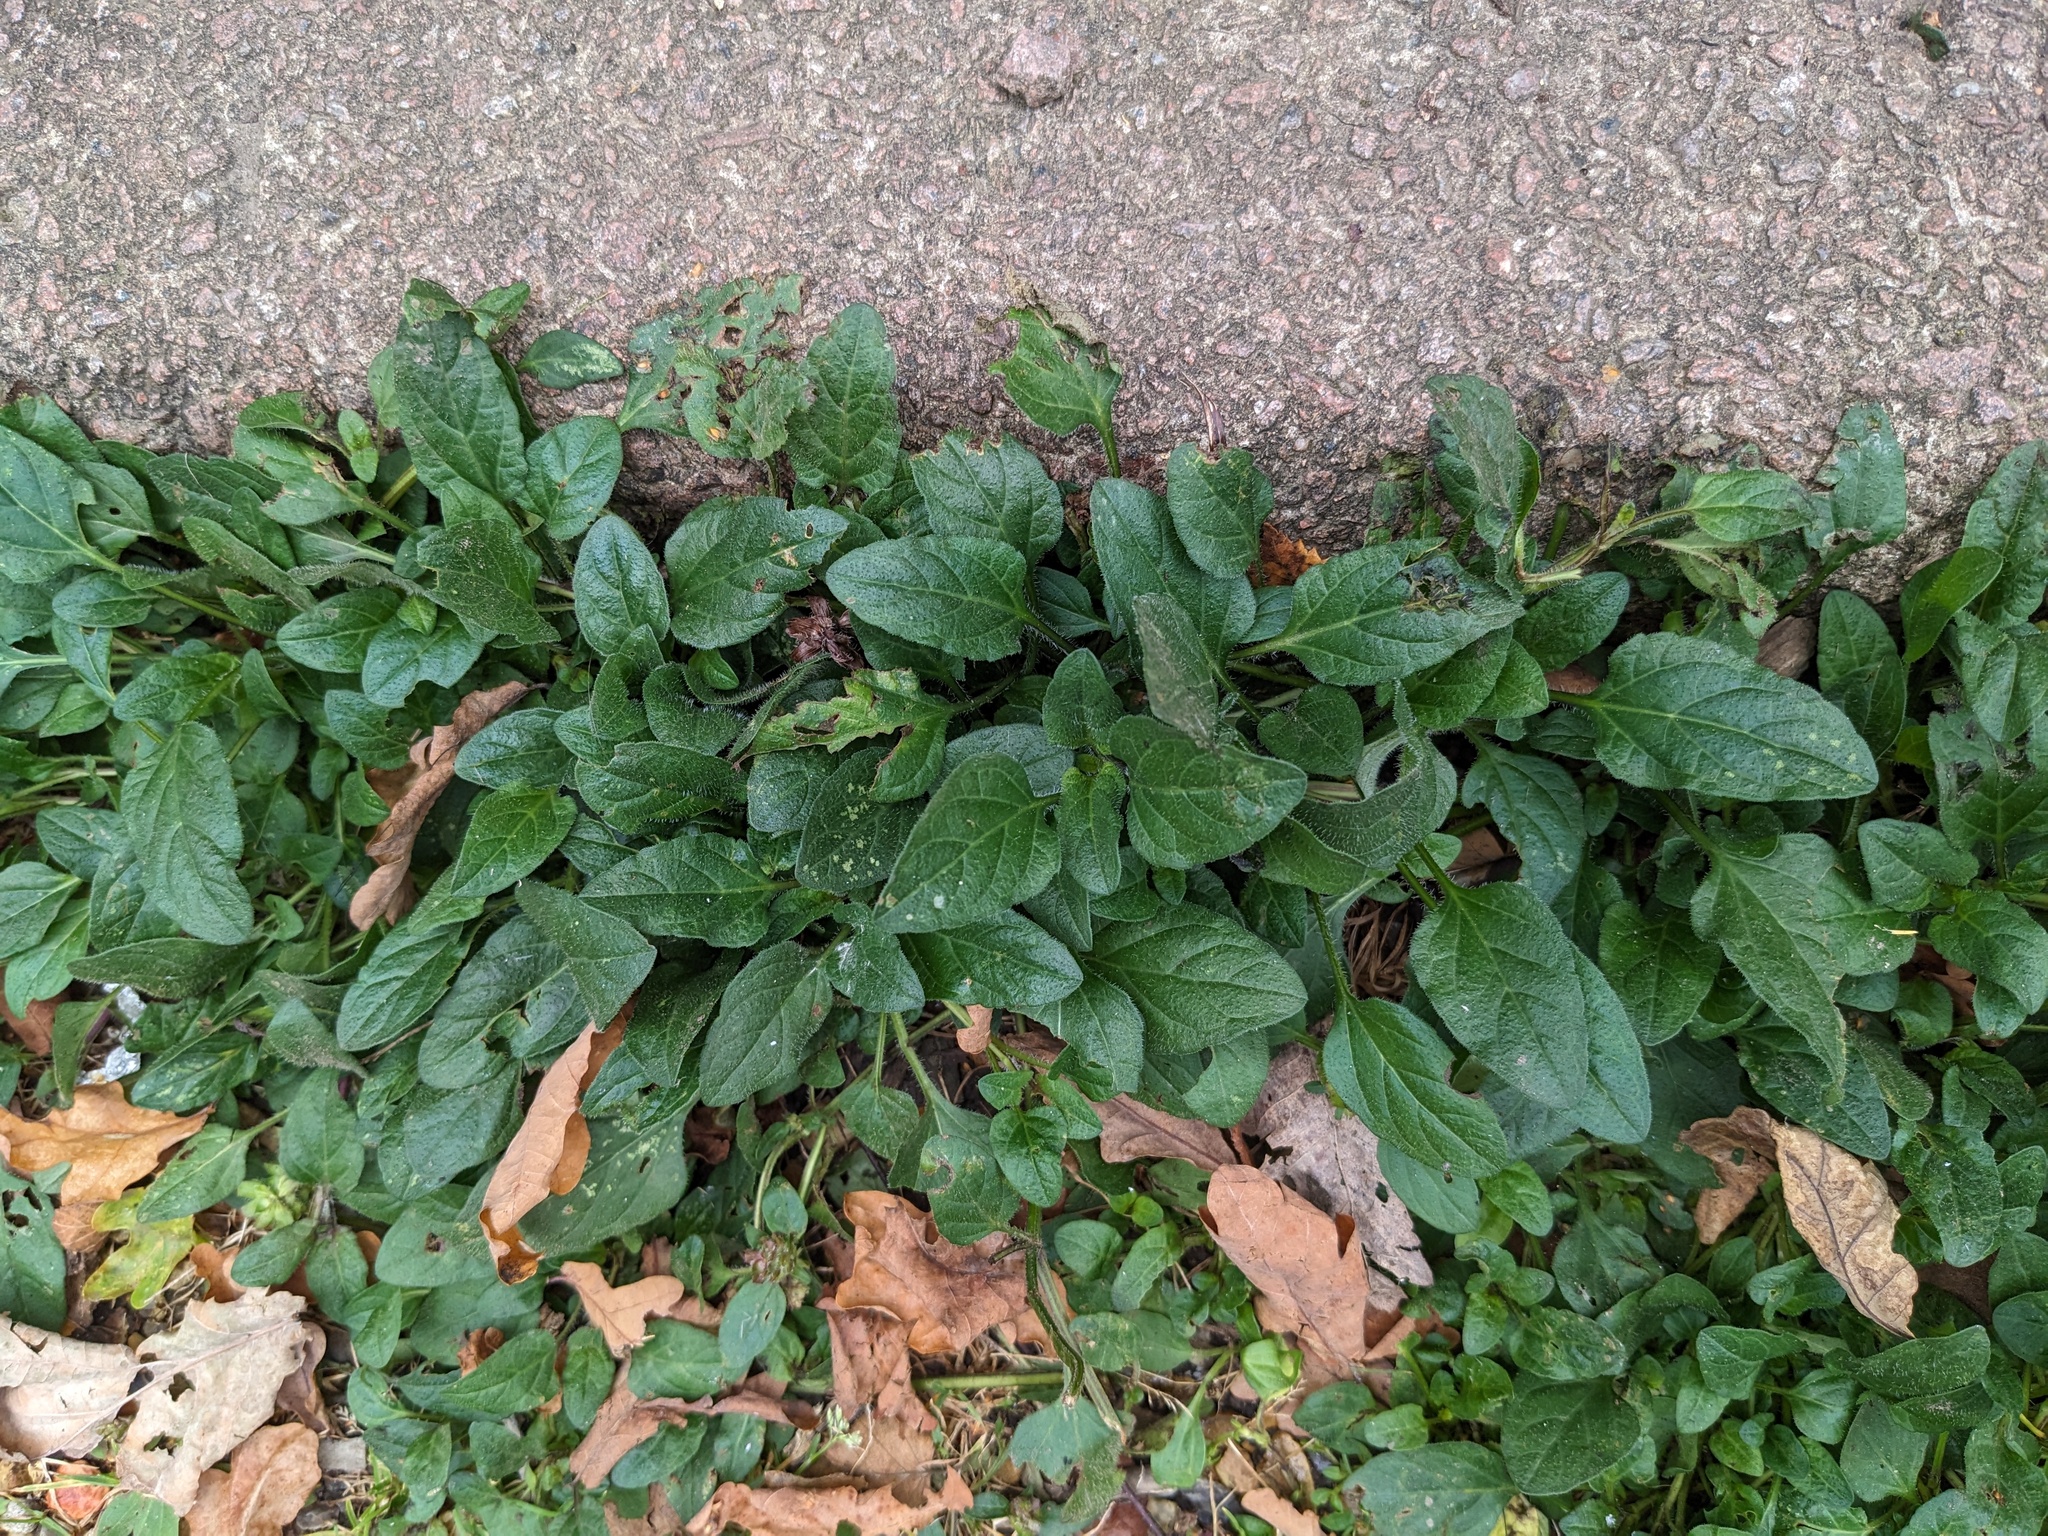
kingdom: Plantae
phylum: Tracheophyta
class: Magnoliopsida
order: Lamiales
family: Lamiaceae
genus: Prunella
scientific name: Prunella vulgaris
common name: Heal-all
